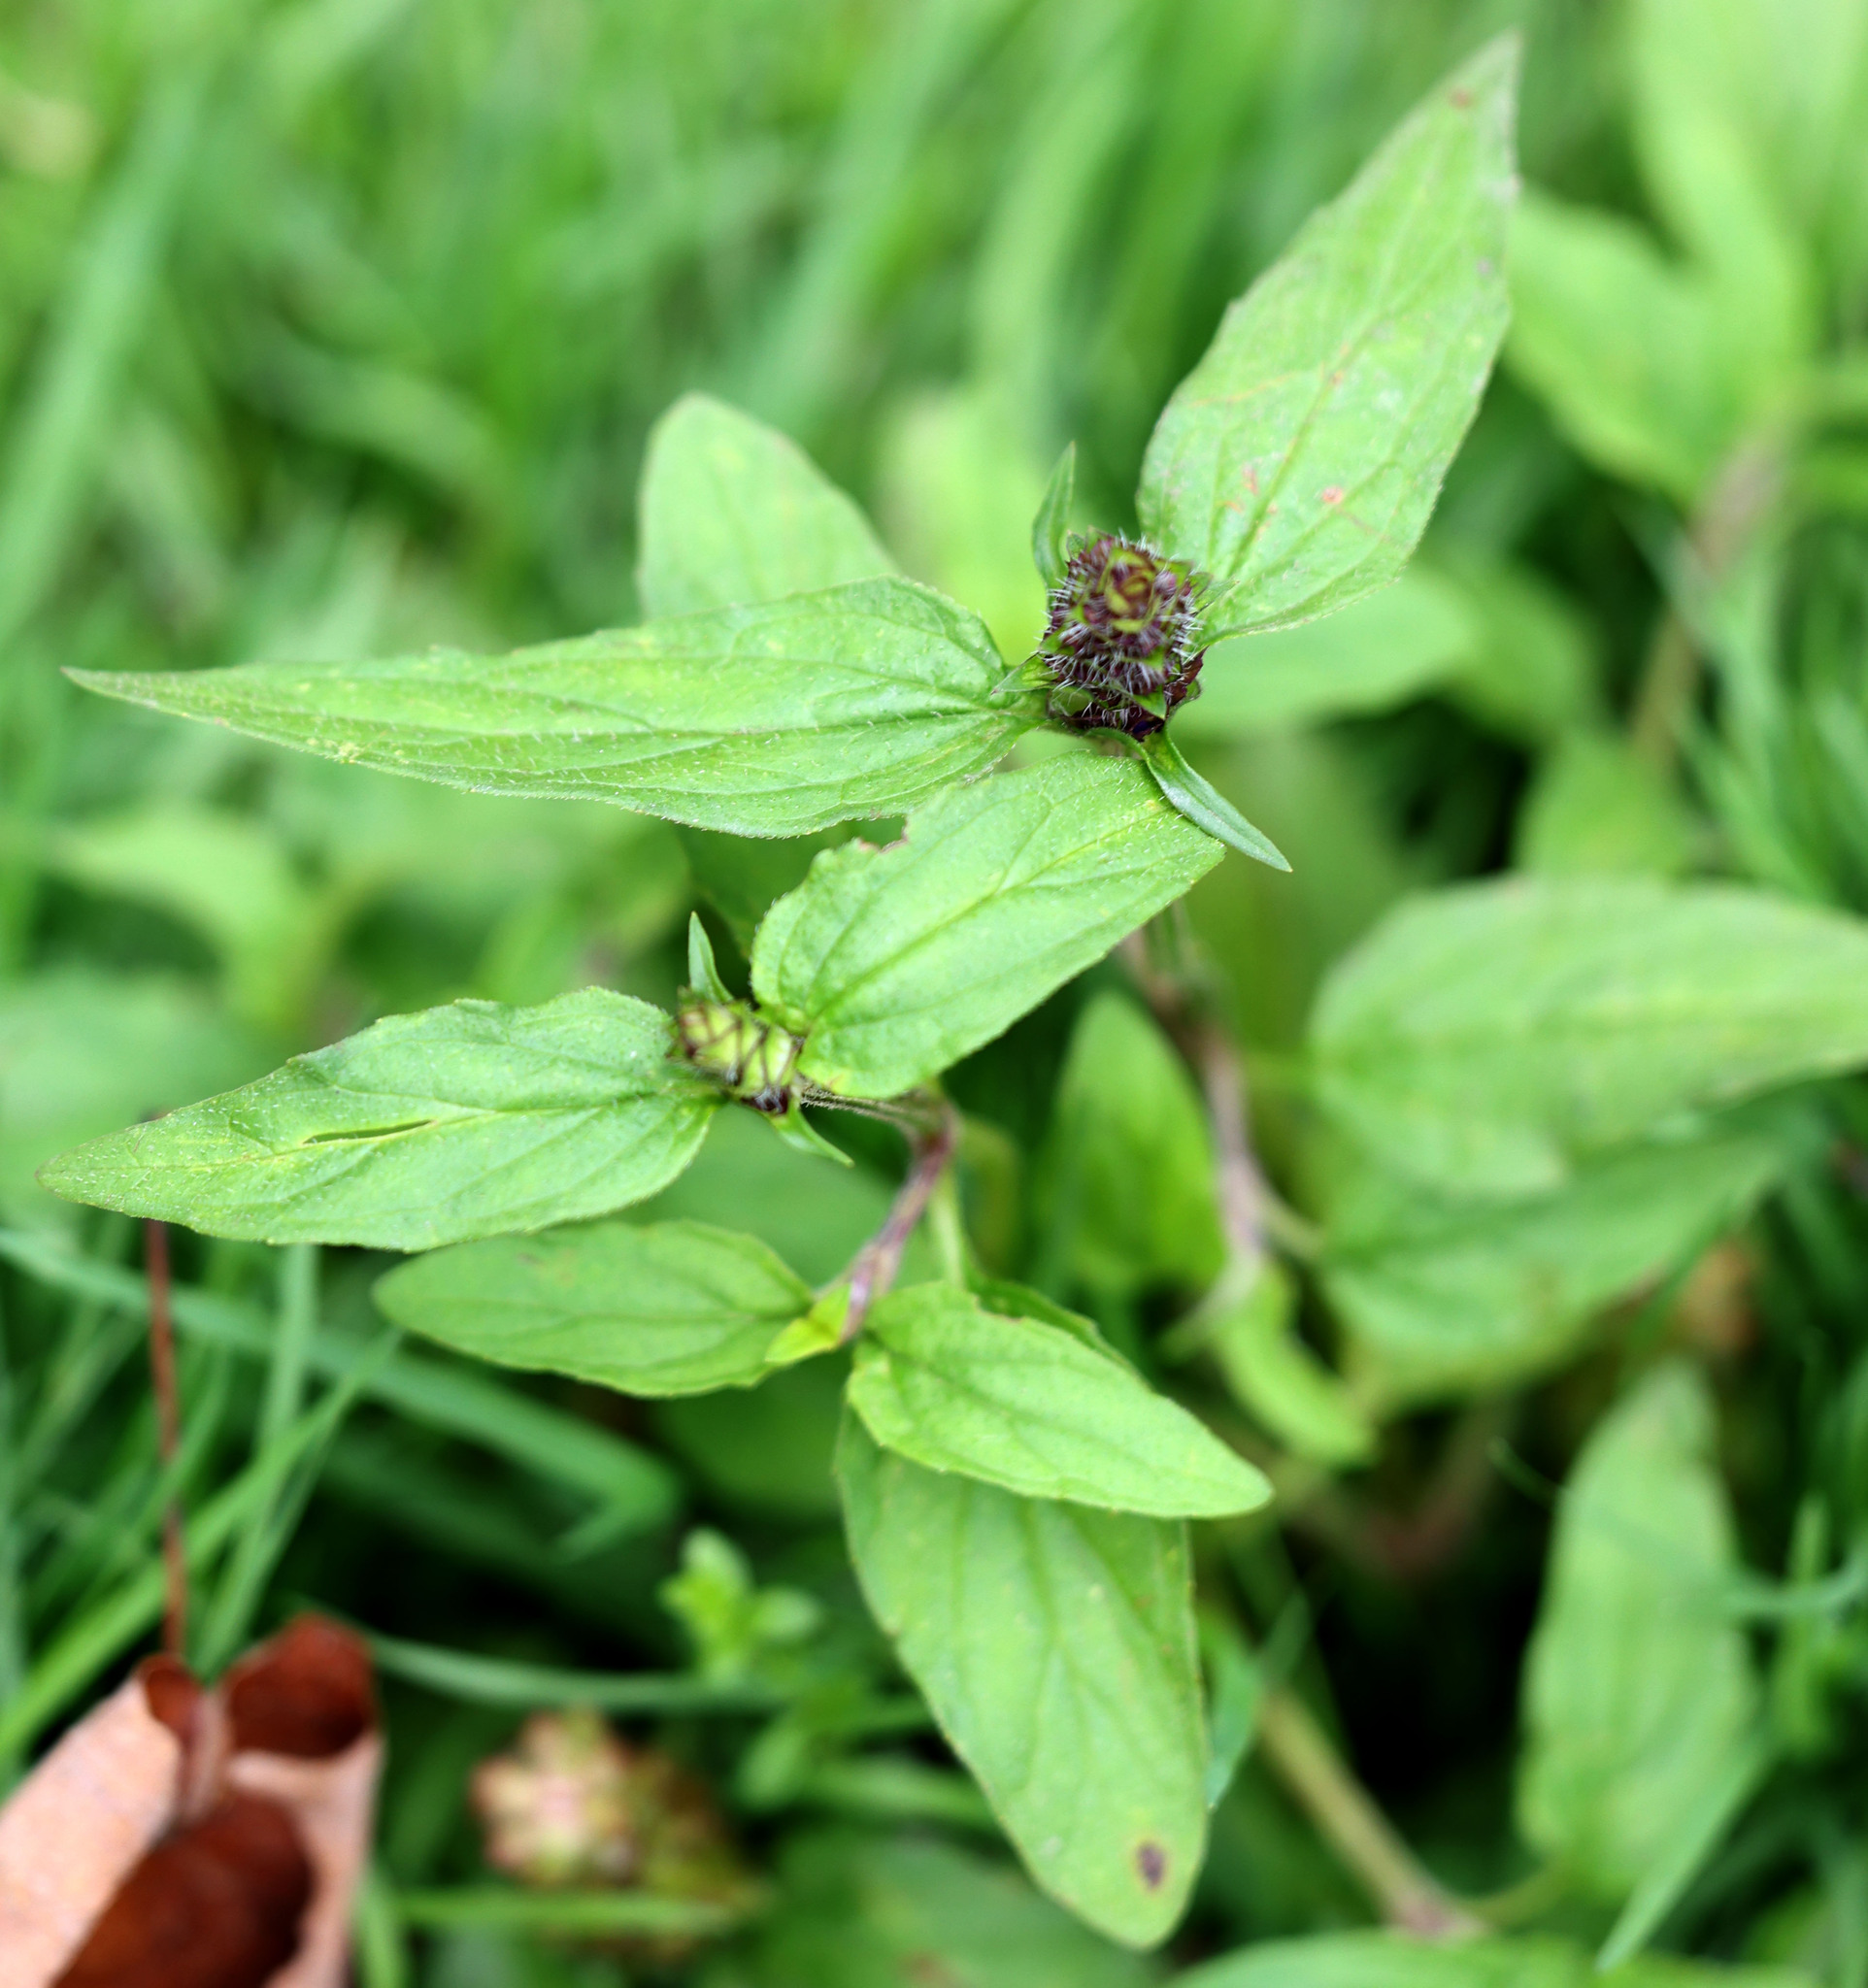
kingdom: Plantae
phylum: Tracheophyta
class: Magnoliopsida
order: Lamiales
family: Lamiaceae
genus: Prunella
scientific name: Prunella vulgaris
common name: Heal-all
